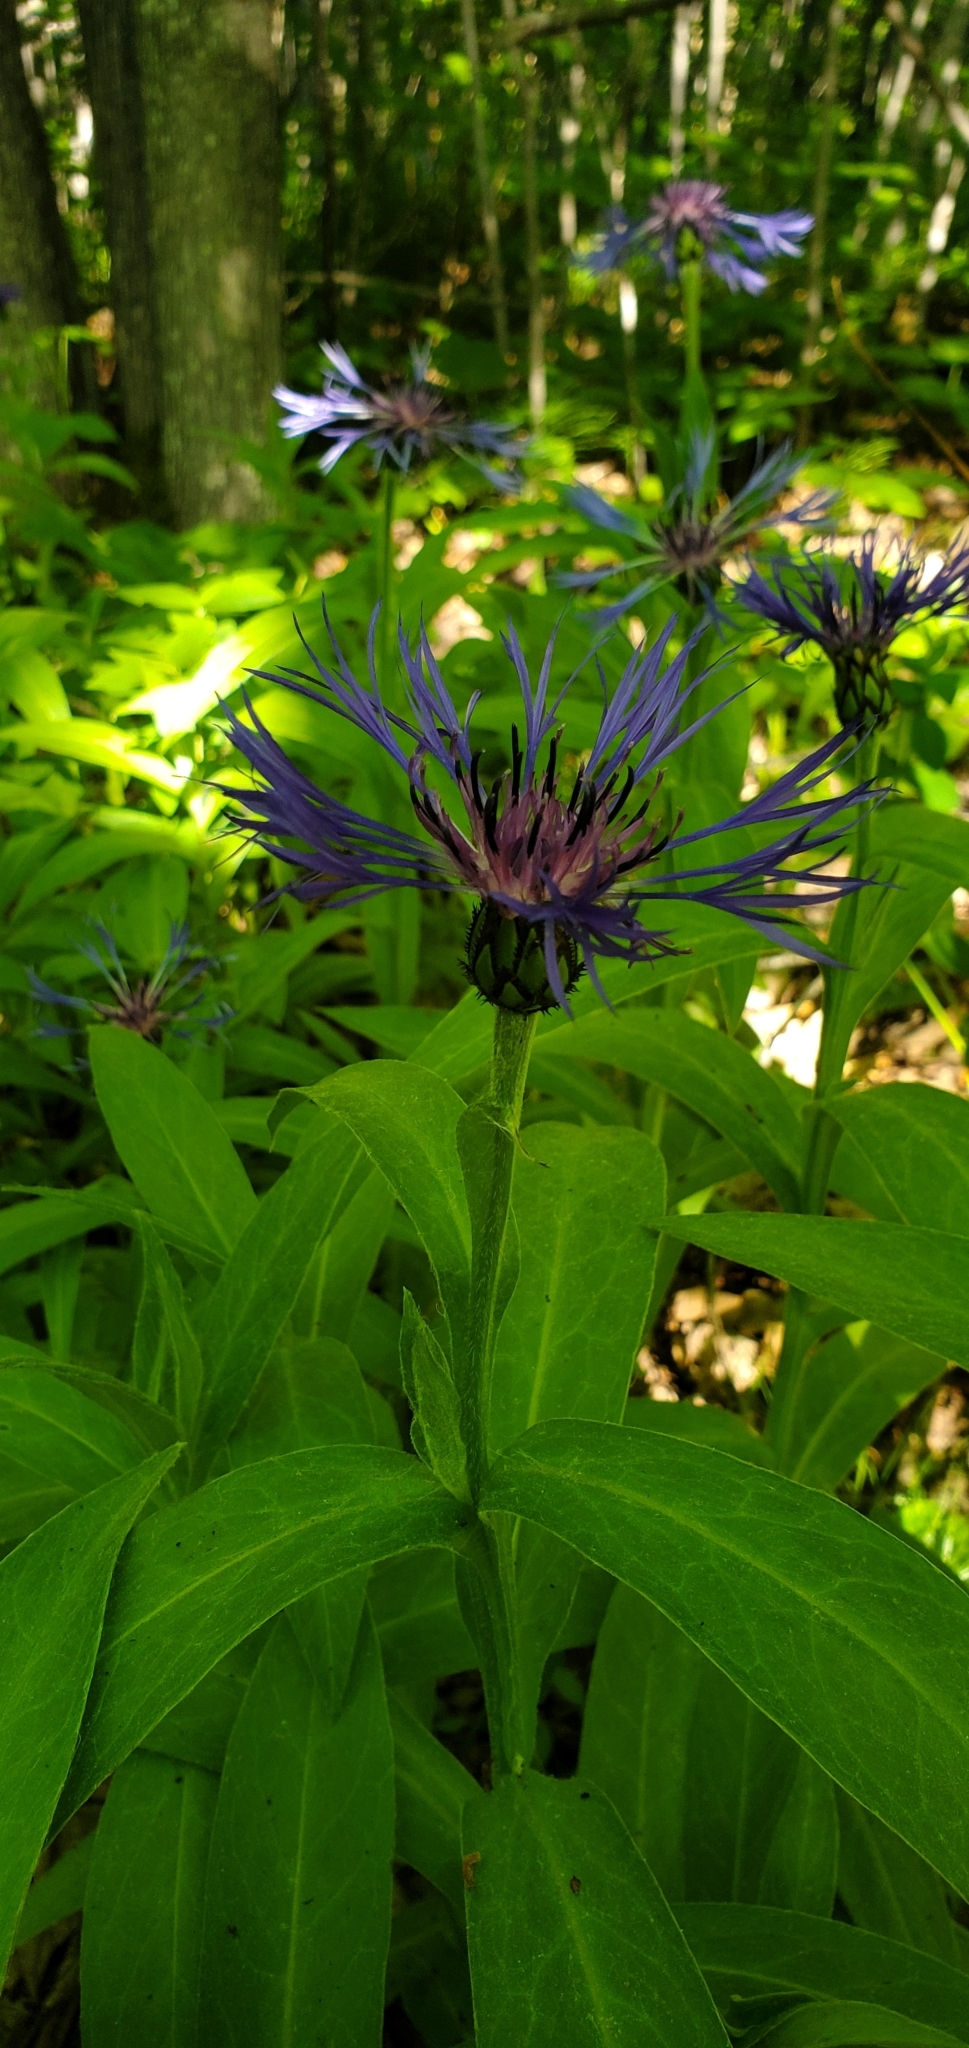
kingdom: Plantae
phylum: Tracheophyta
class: Magnoliopsida
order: Asterales
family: Asteraceae
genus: Centaurea
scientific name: Centaurea montana
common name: Perennial cornflower
